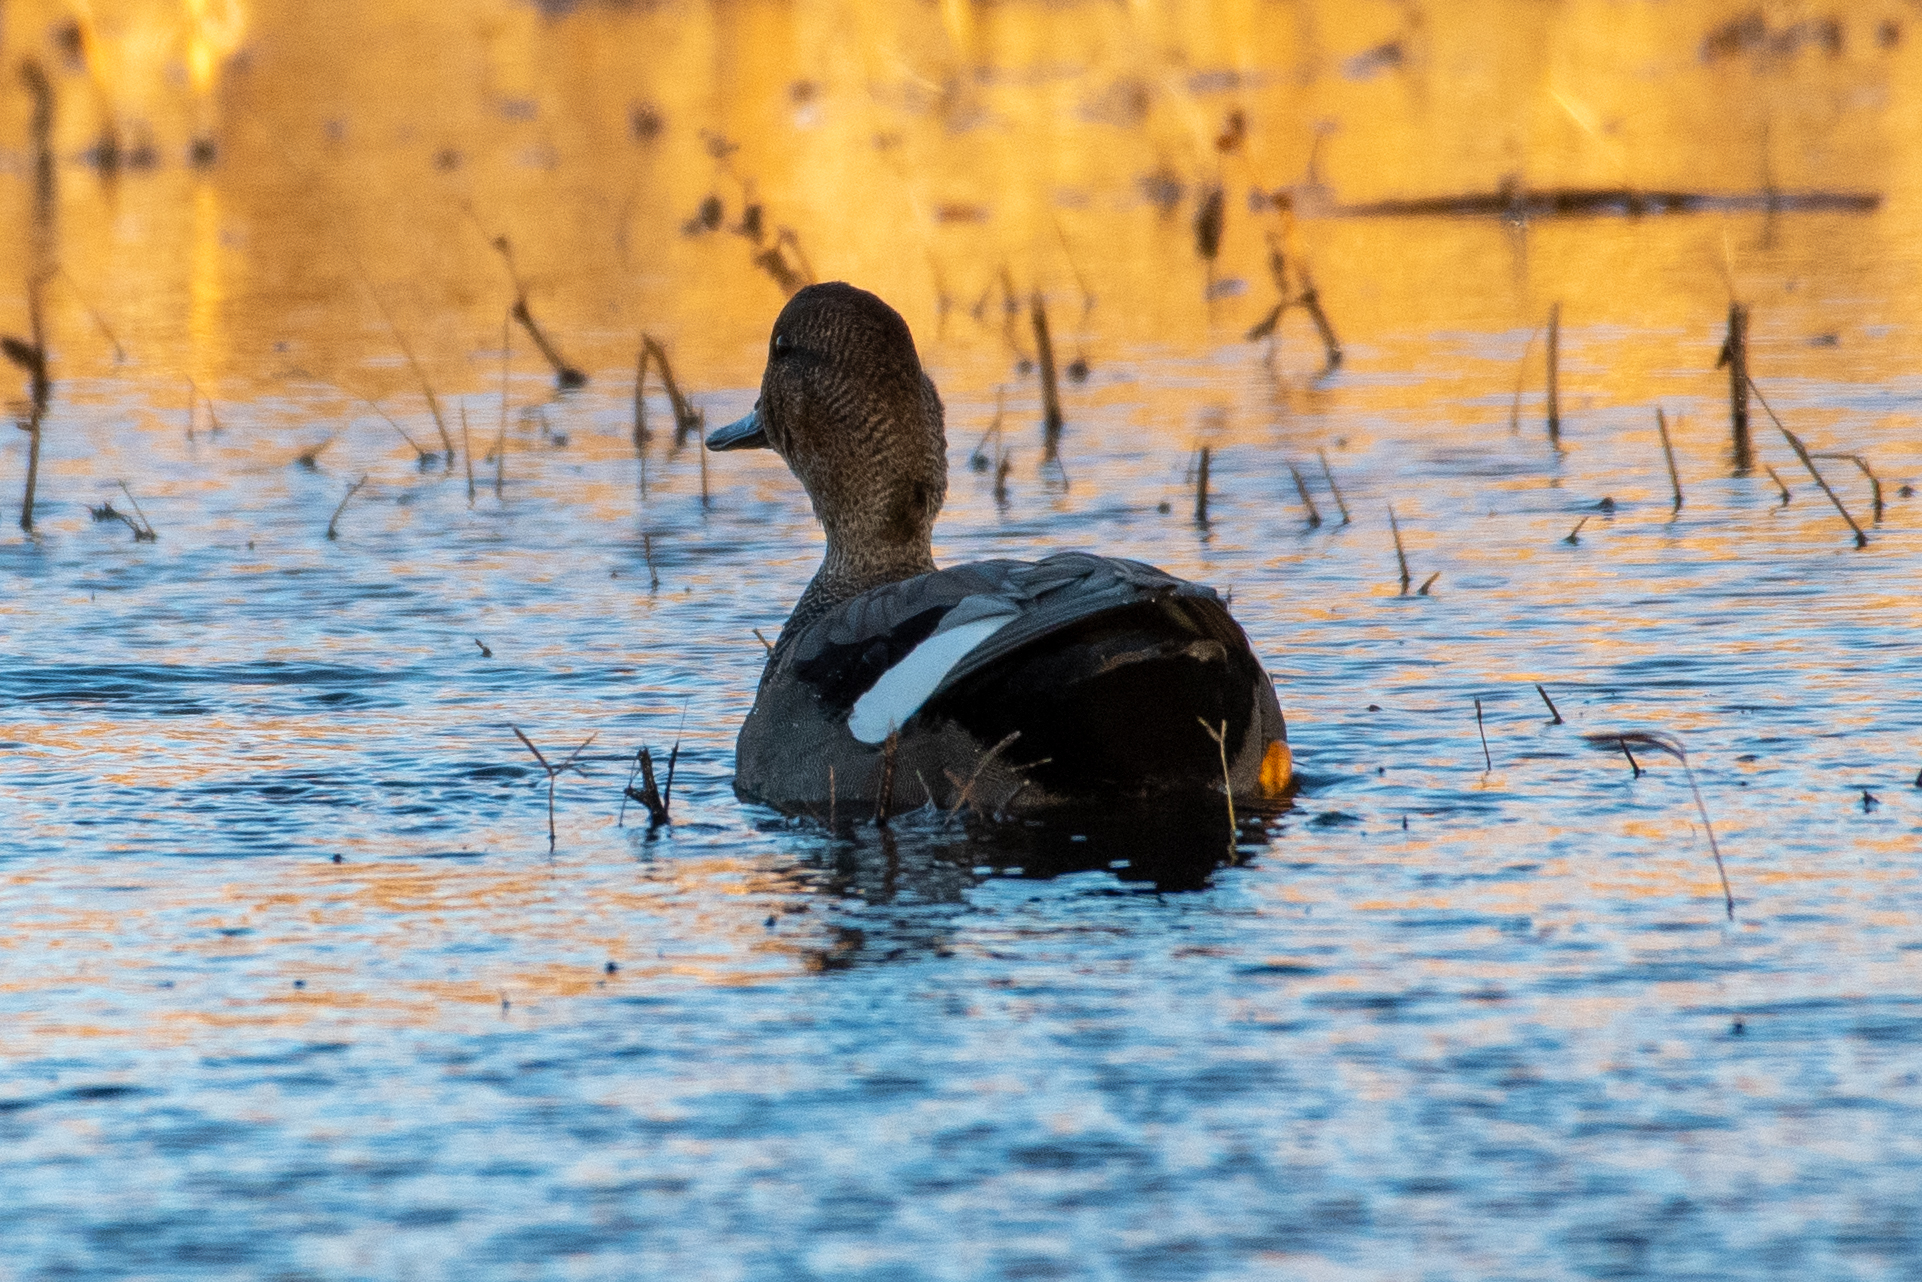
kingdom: Animalia
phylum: Chordata
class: Aves
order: Anseriformes
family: Anatidae
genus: Mareca
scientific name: Mareca strepera
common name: Gadwall
